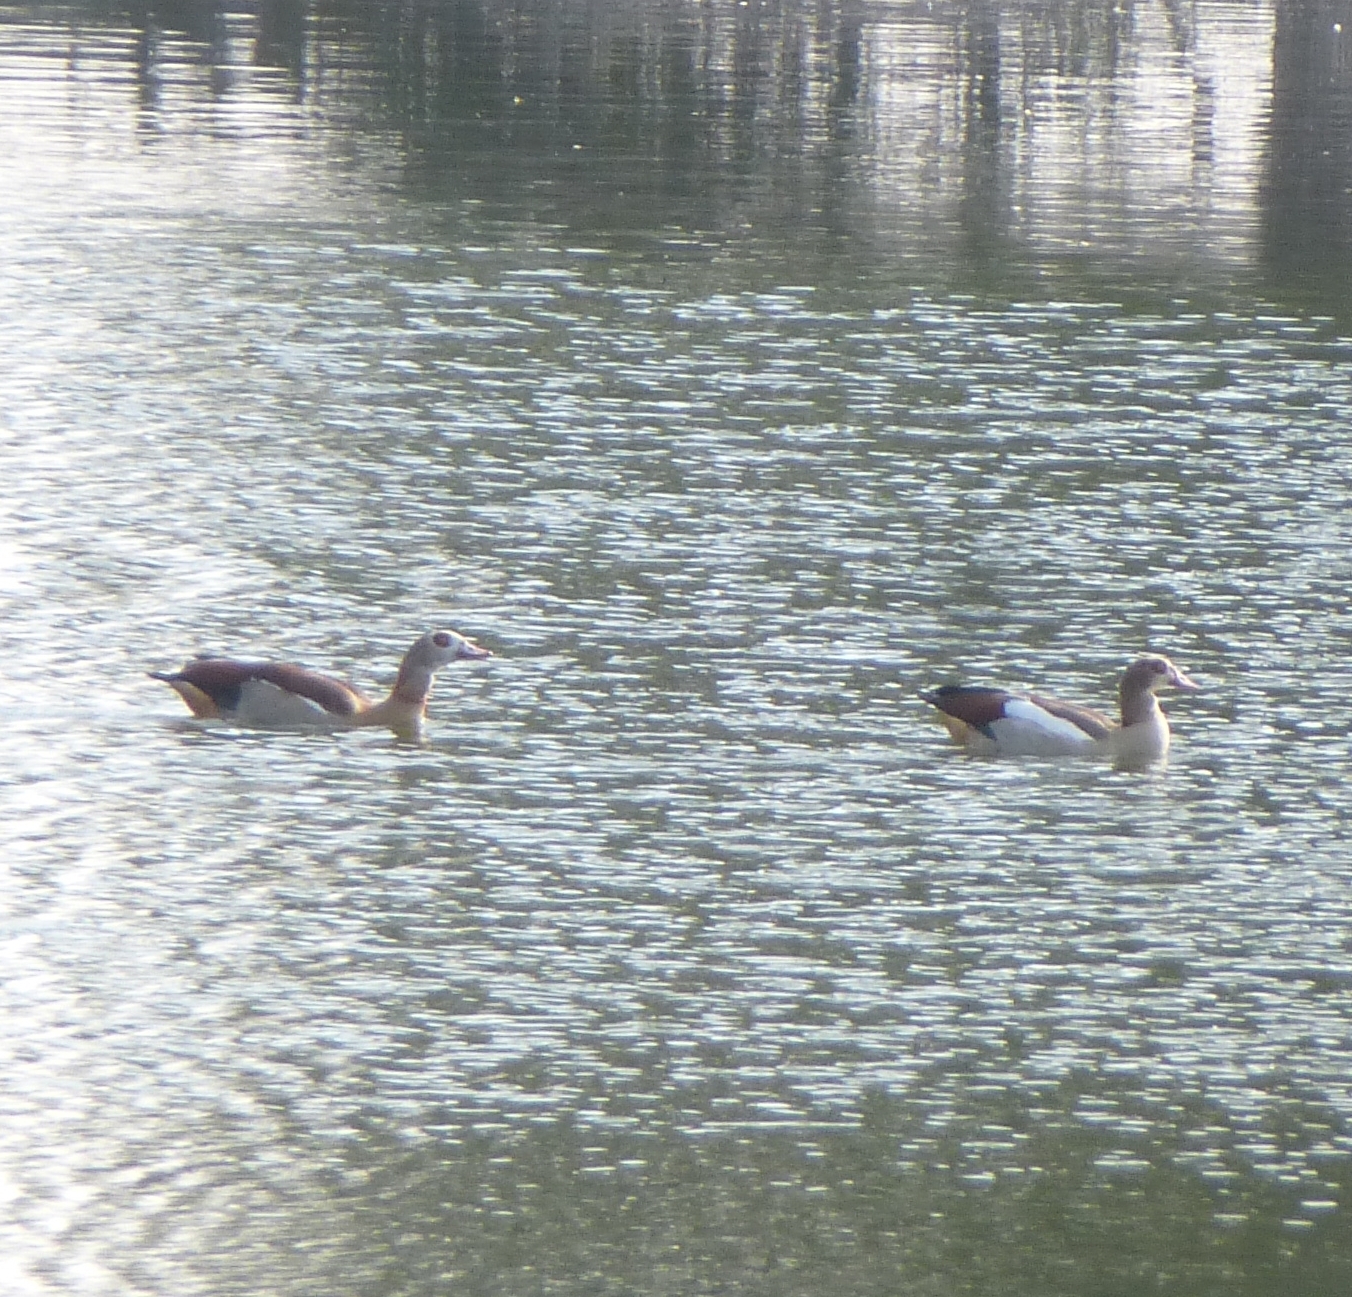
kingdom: Animalia
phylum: Chordata
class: Aves
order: Anseriformes
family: Anatidae
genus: Alopochen
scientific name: Alopochen aegyptiaca
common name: Egyptian goose
